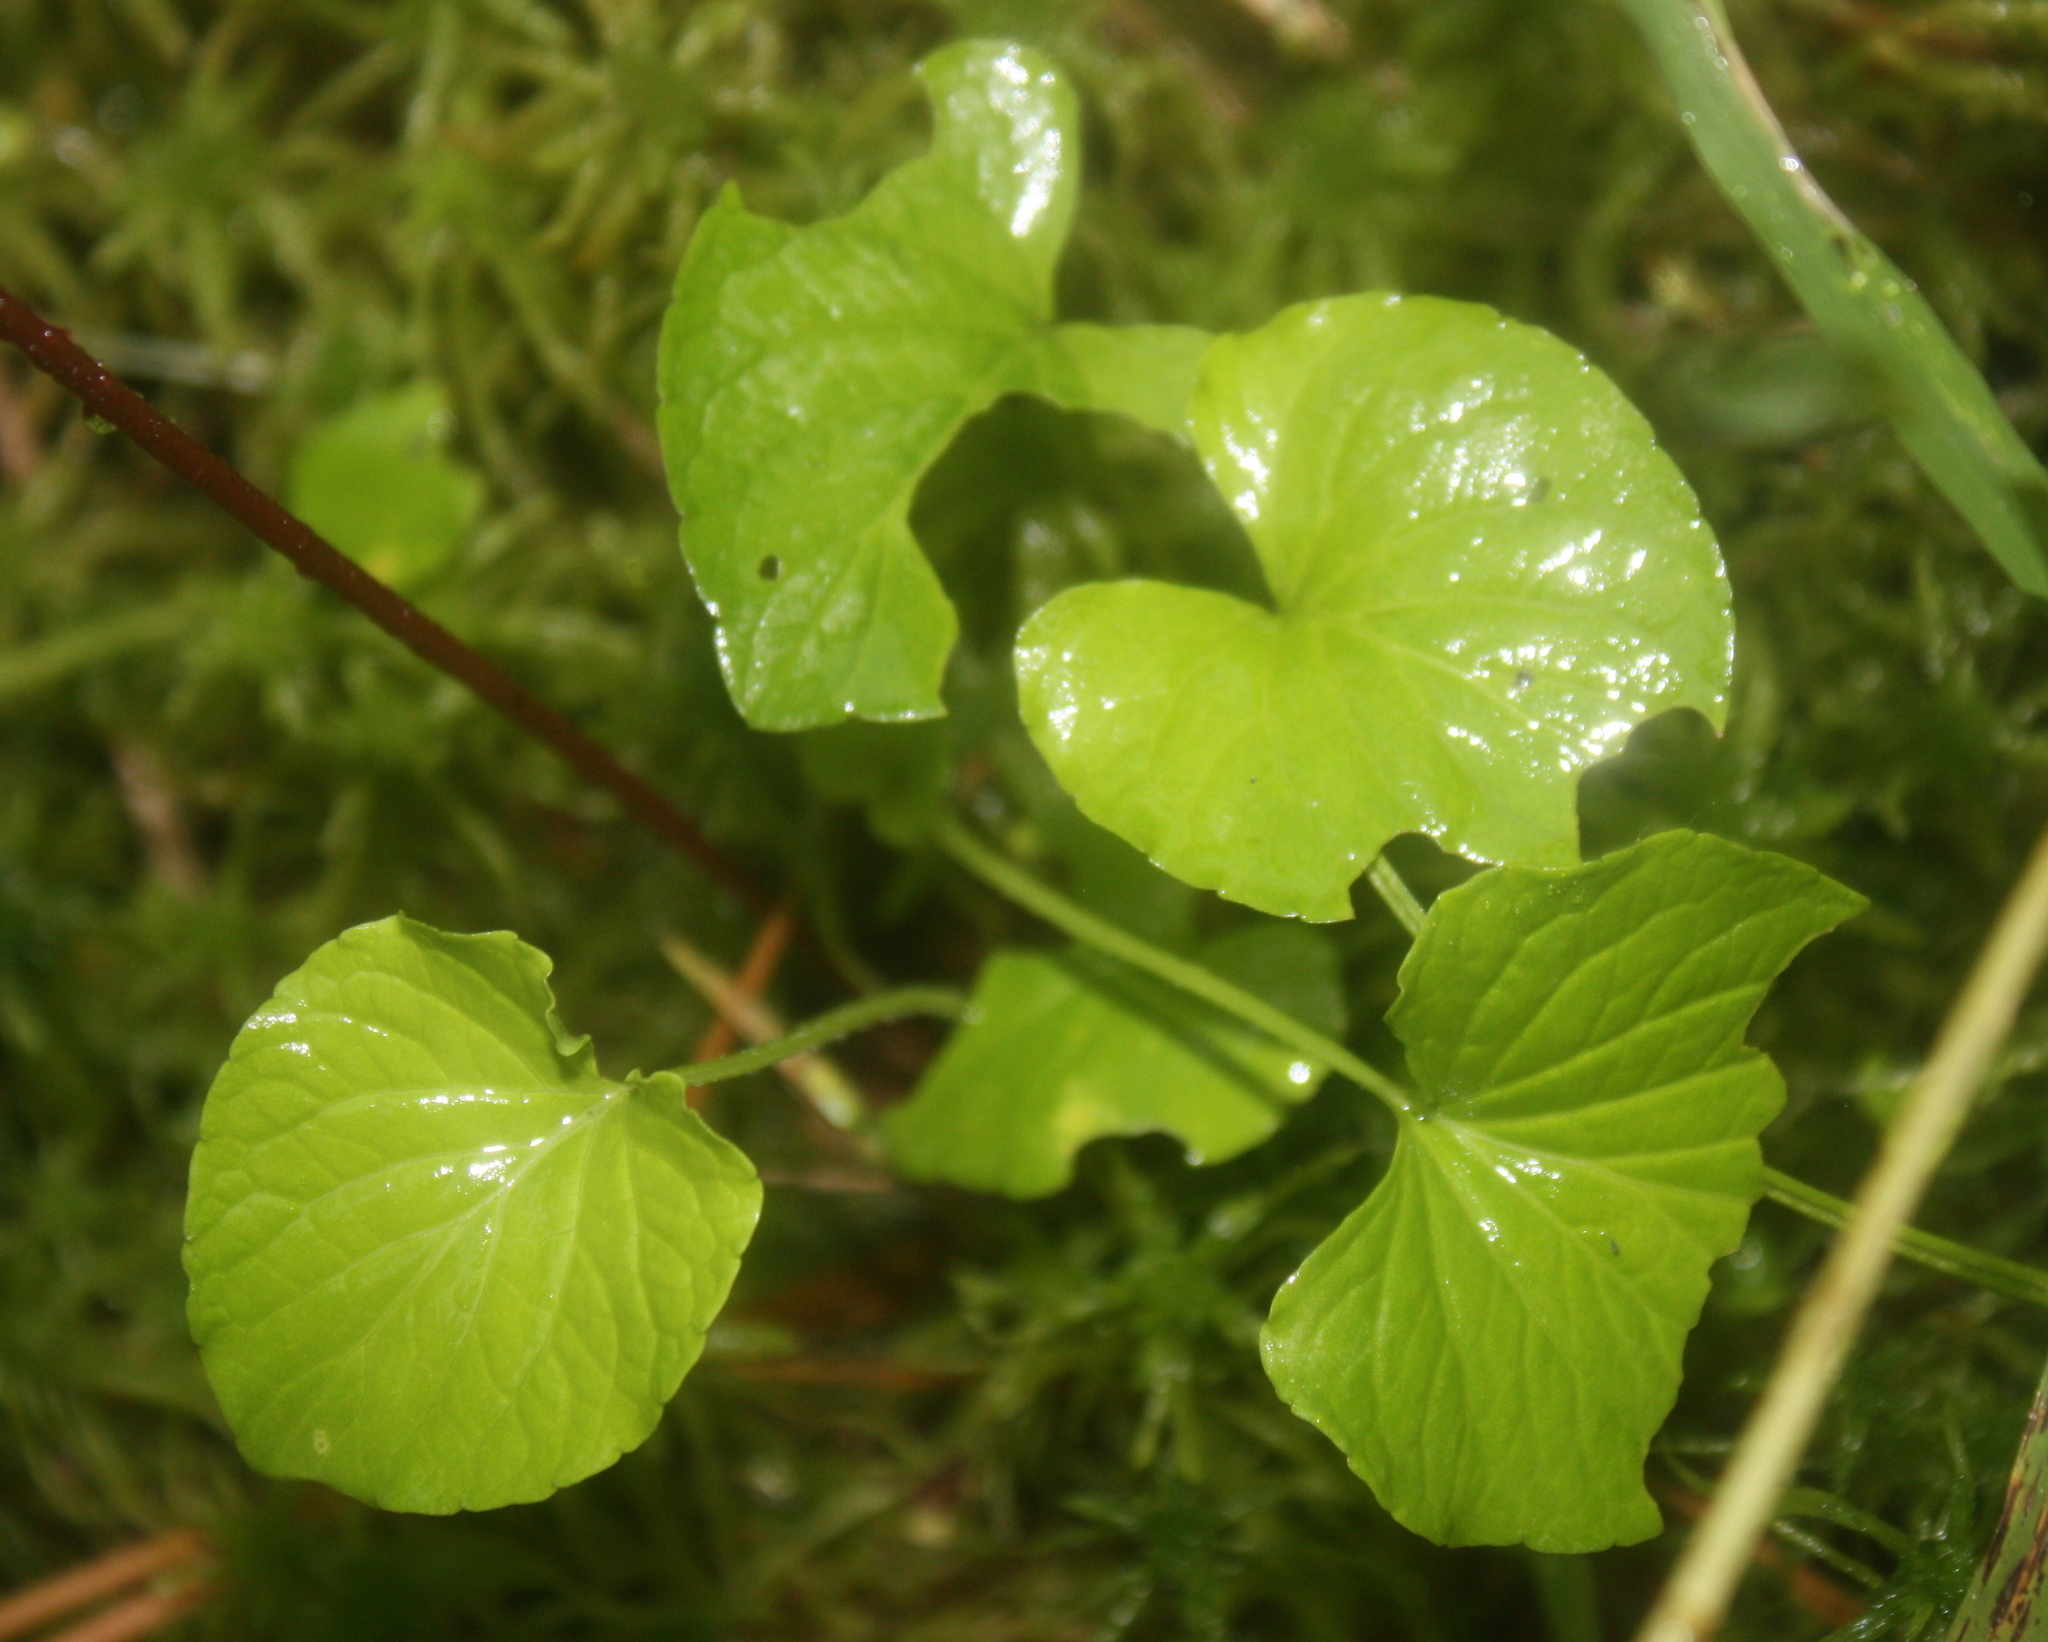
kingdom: Plantae
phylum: Tracheophyta
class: Magnoliopsida
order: Malpighiales
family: Violaceae
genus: Viola
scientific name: Viola sororia
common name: Dooryard violet
